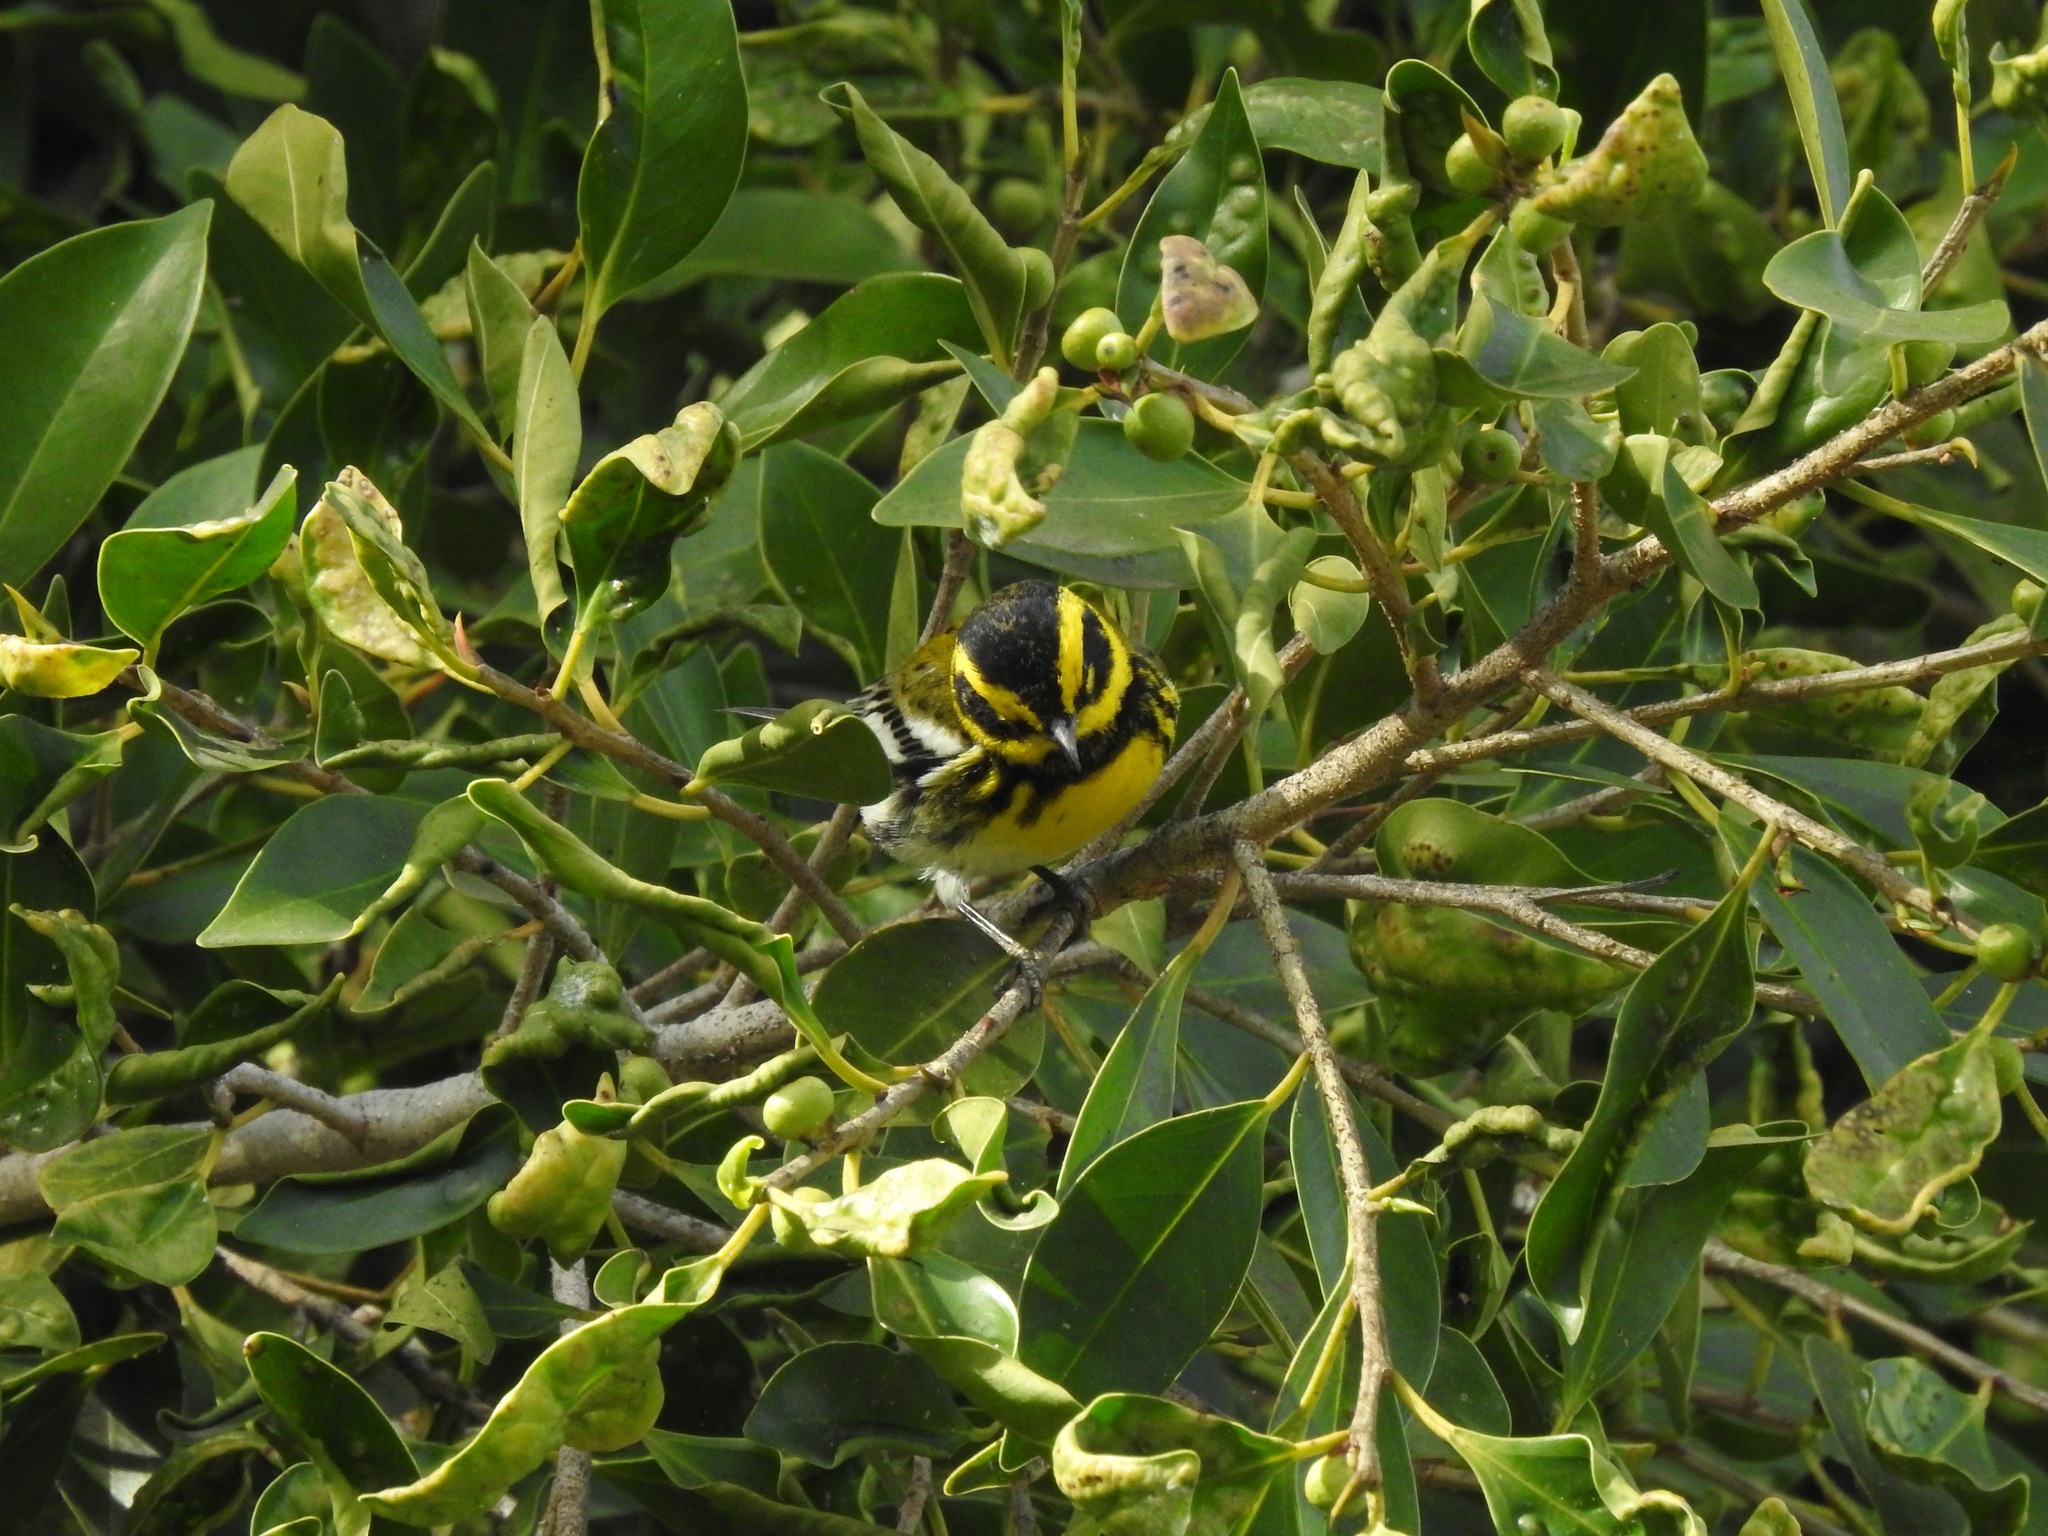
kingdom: Animalia
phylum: Chordata
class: Aves
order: Passeriformes
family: Parulidae
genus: Setophaga
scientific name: Setophaga townsendi
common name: Townsend's warbler
